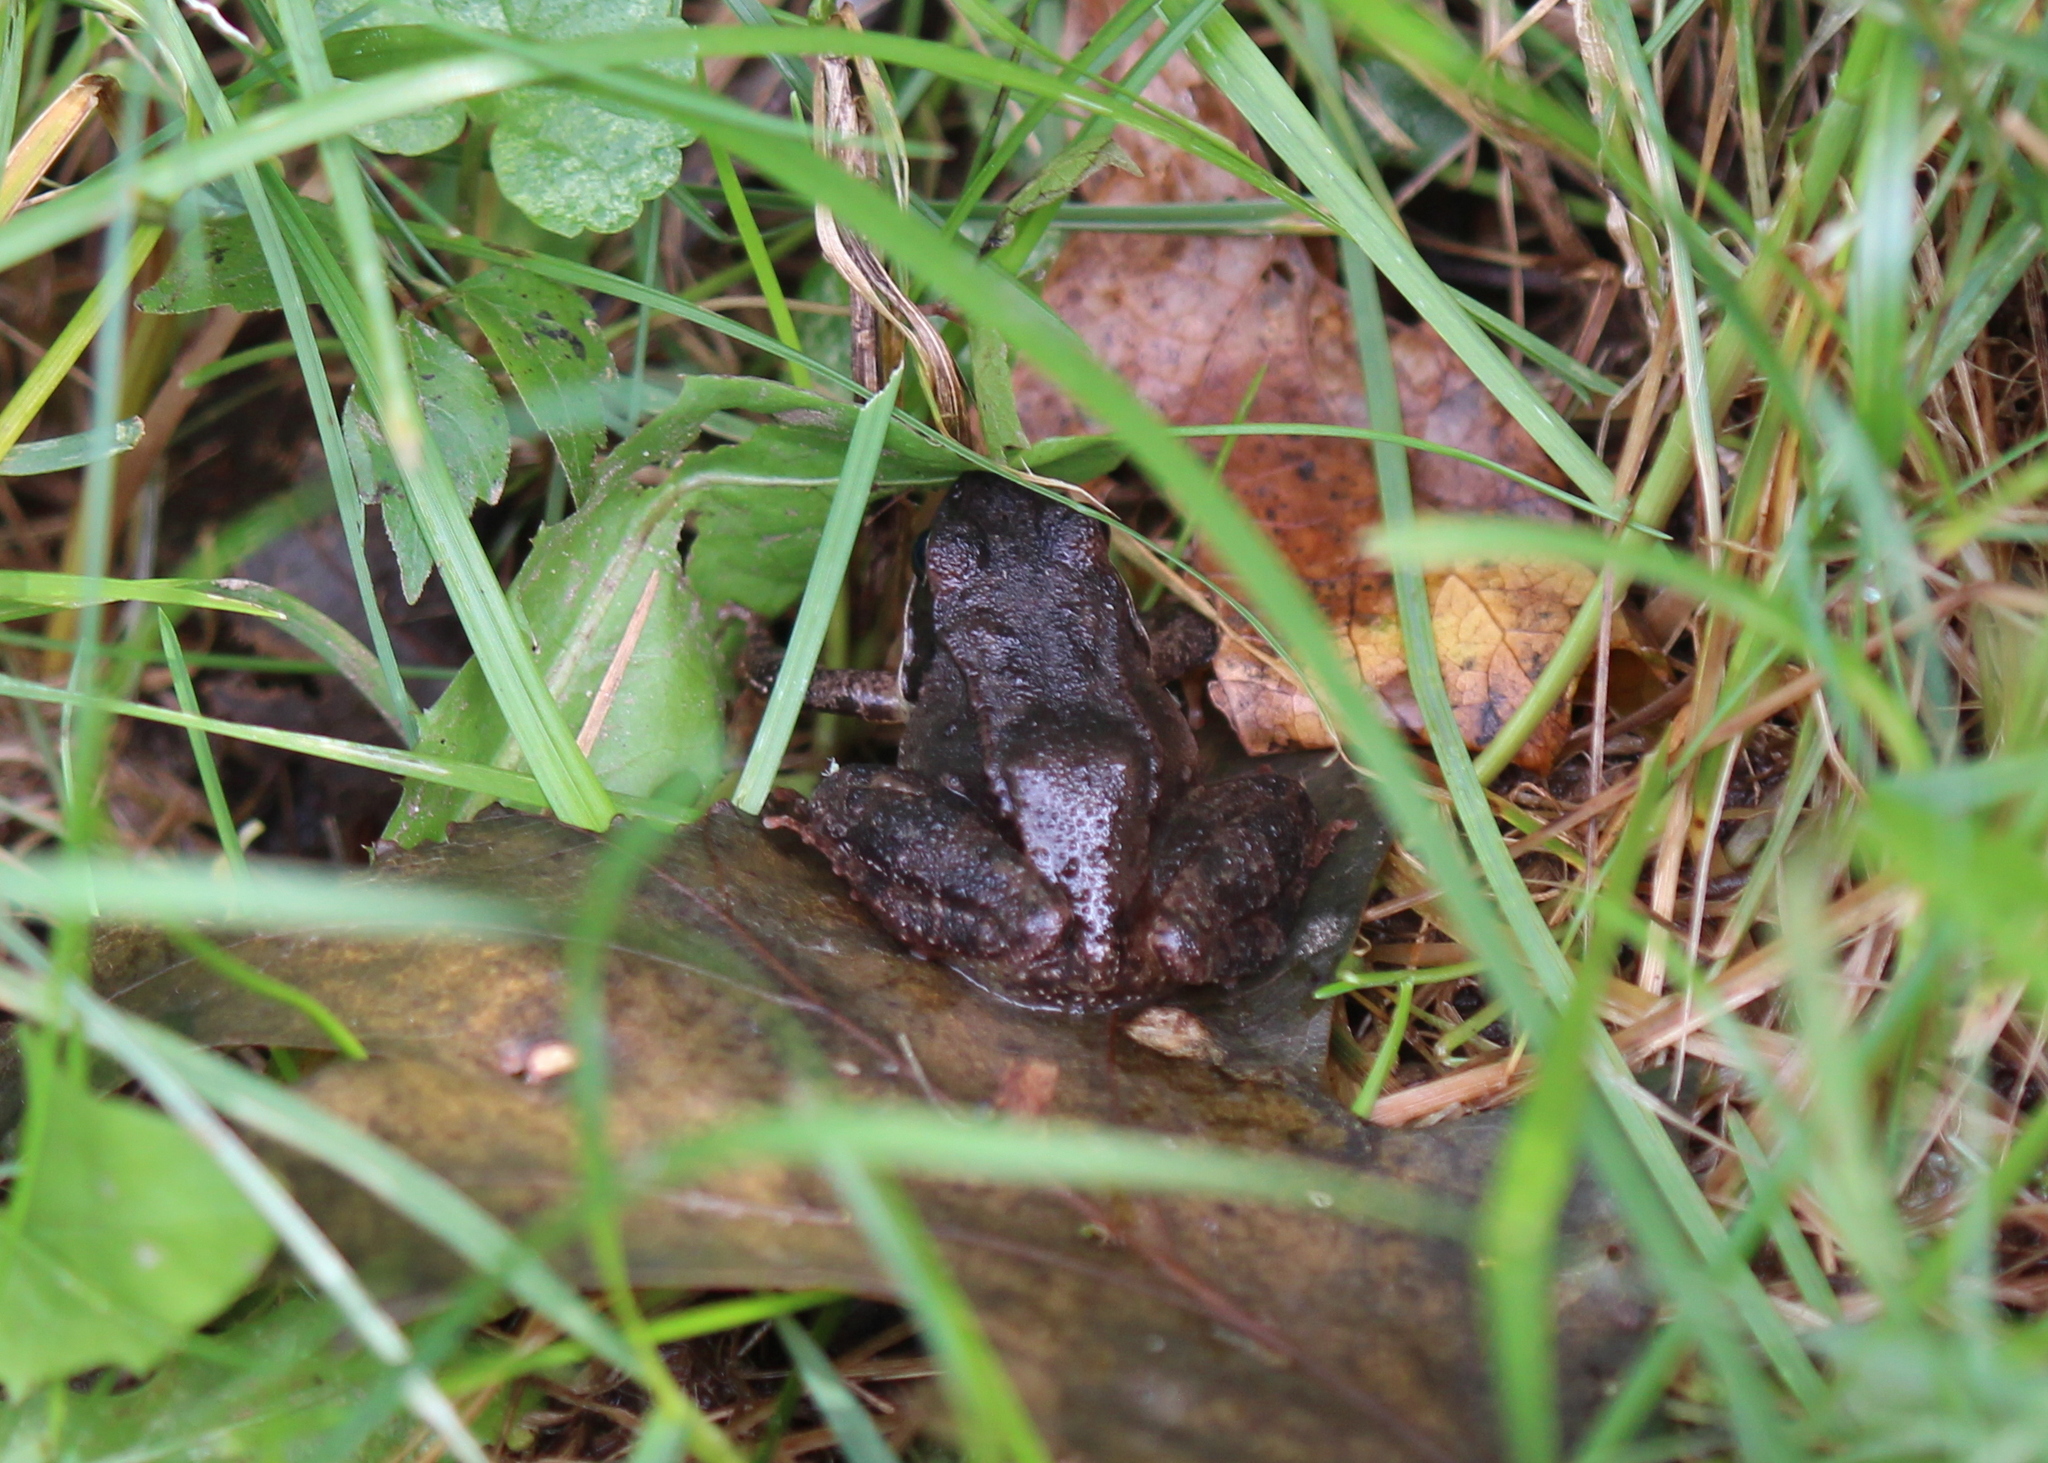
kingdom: Animalia
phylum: Chordata
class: Amphibia
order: Anura
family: Ranidae
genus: Lithobates
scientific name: Lithobates sylvaticus
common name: Wood frog
